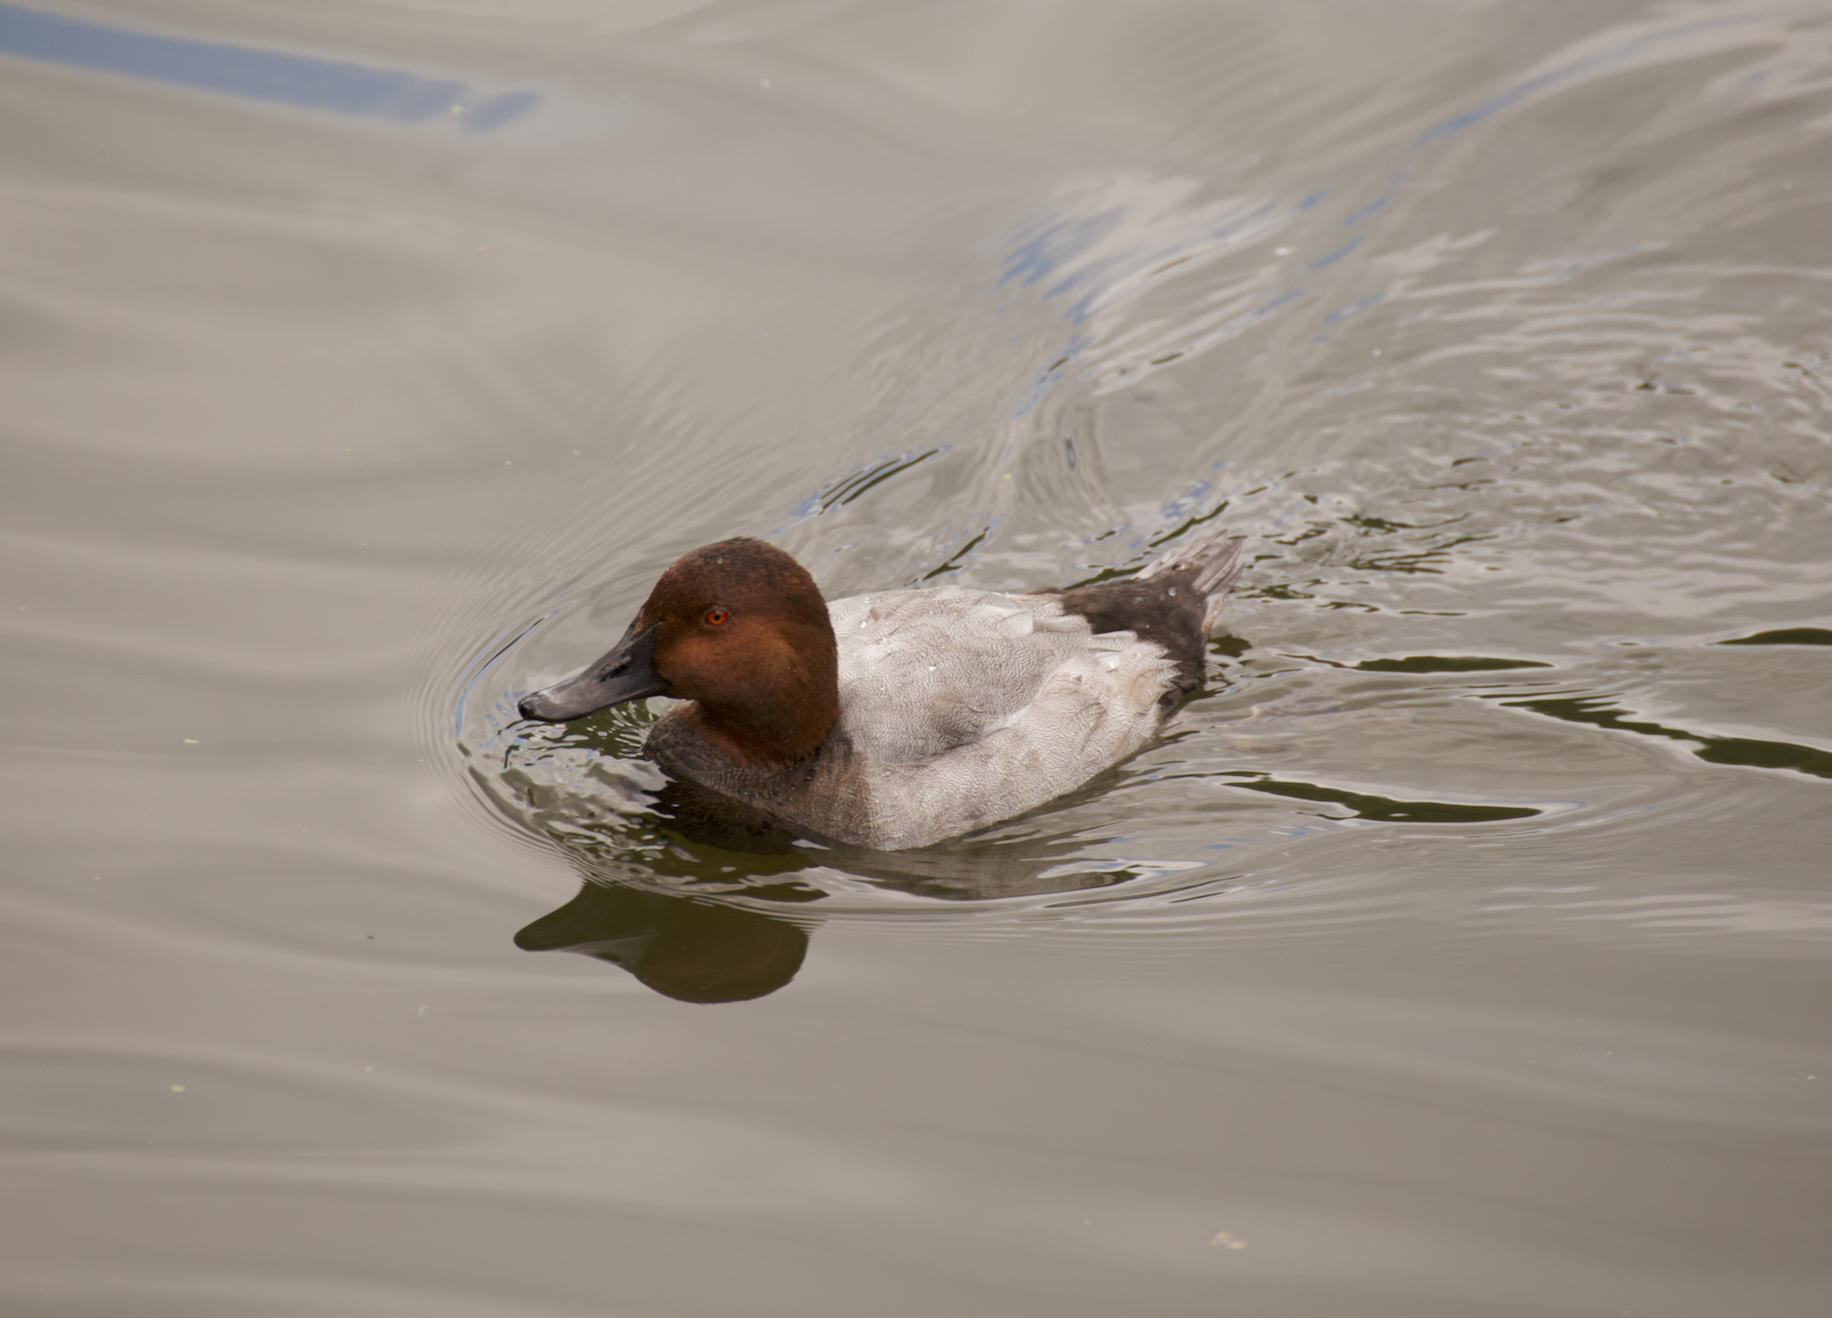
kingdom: Animalia
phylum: Chordata
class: Aves
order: Anseriformes
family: Anatidae
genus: Aythya
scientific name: Aythya ferina
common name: Common pochard
